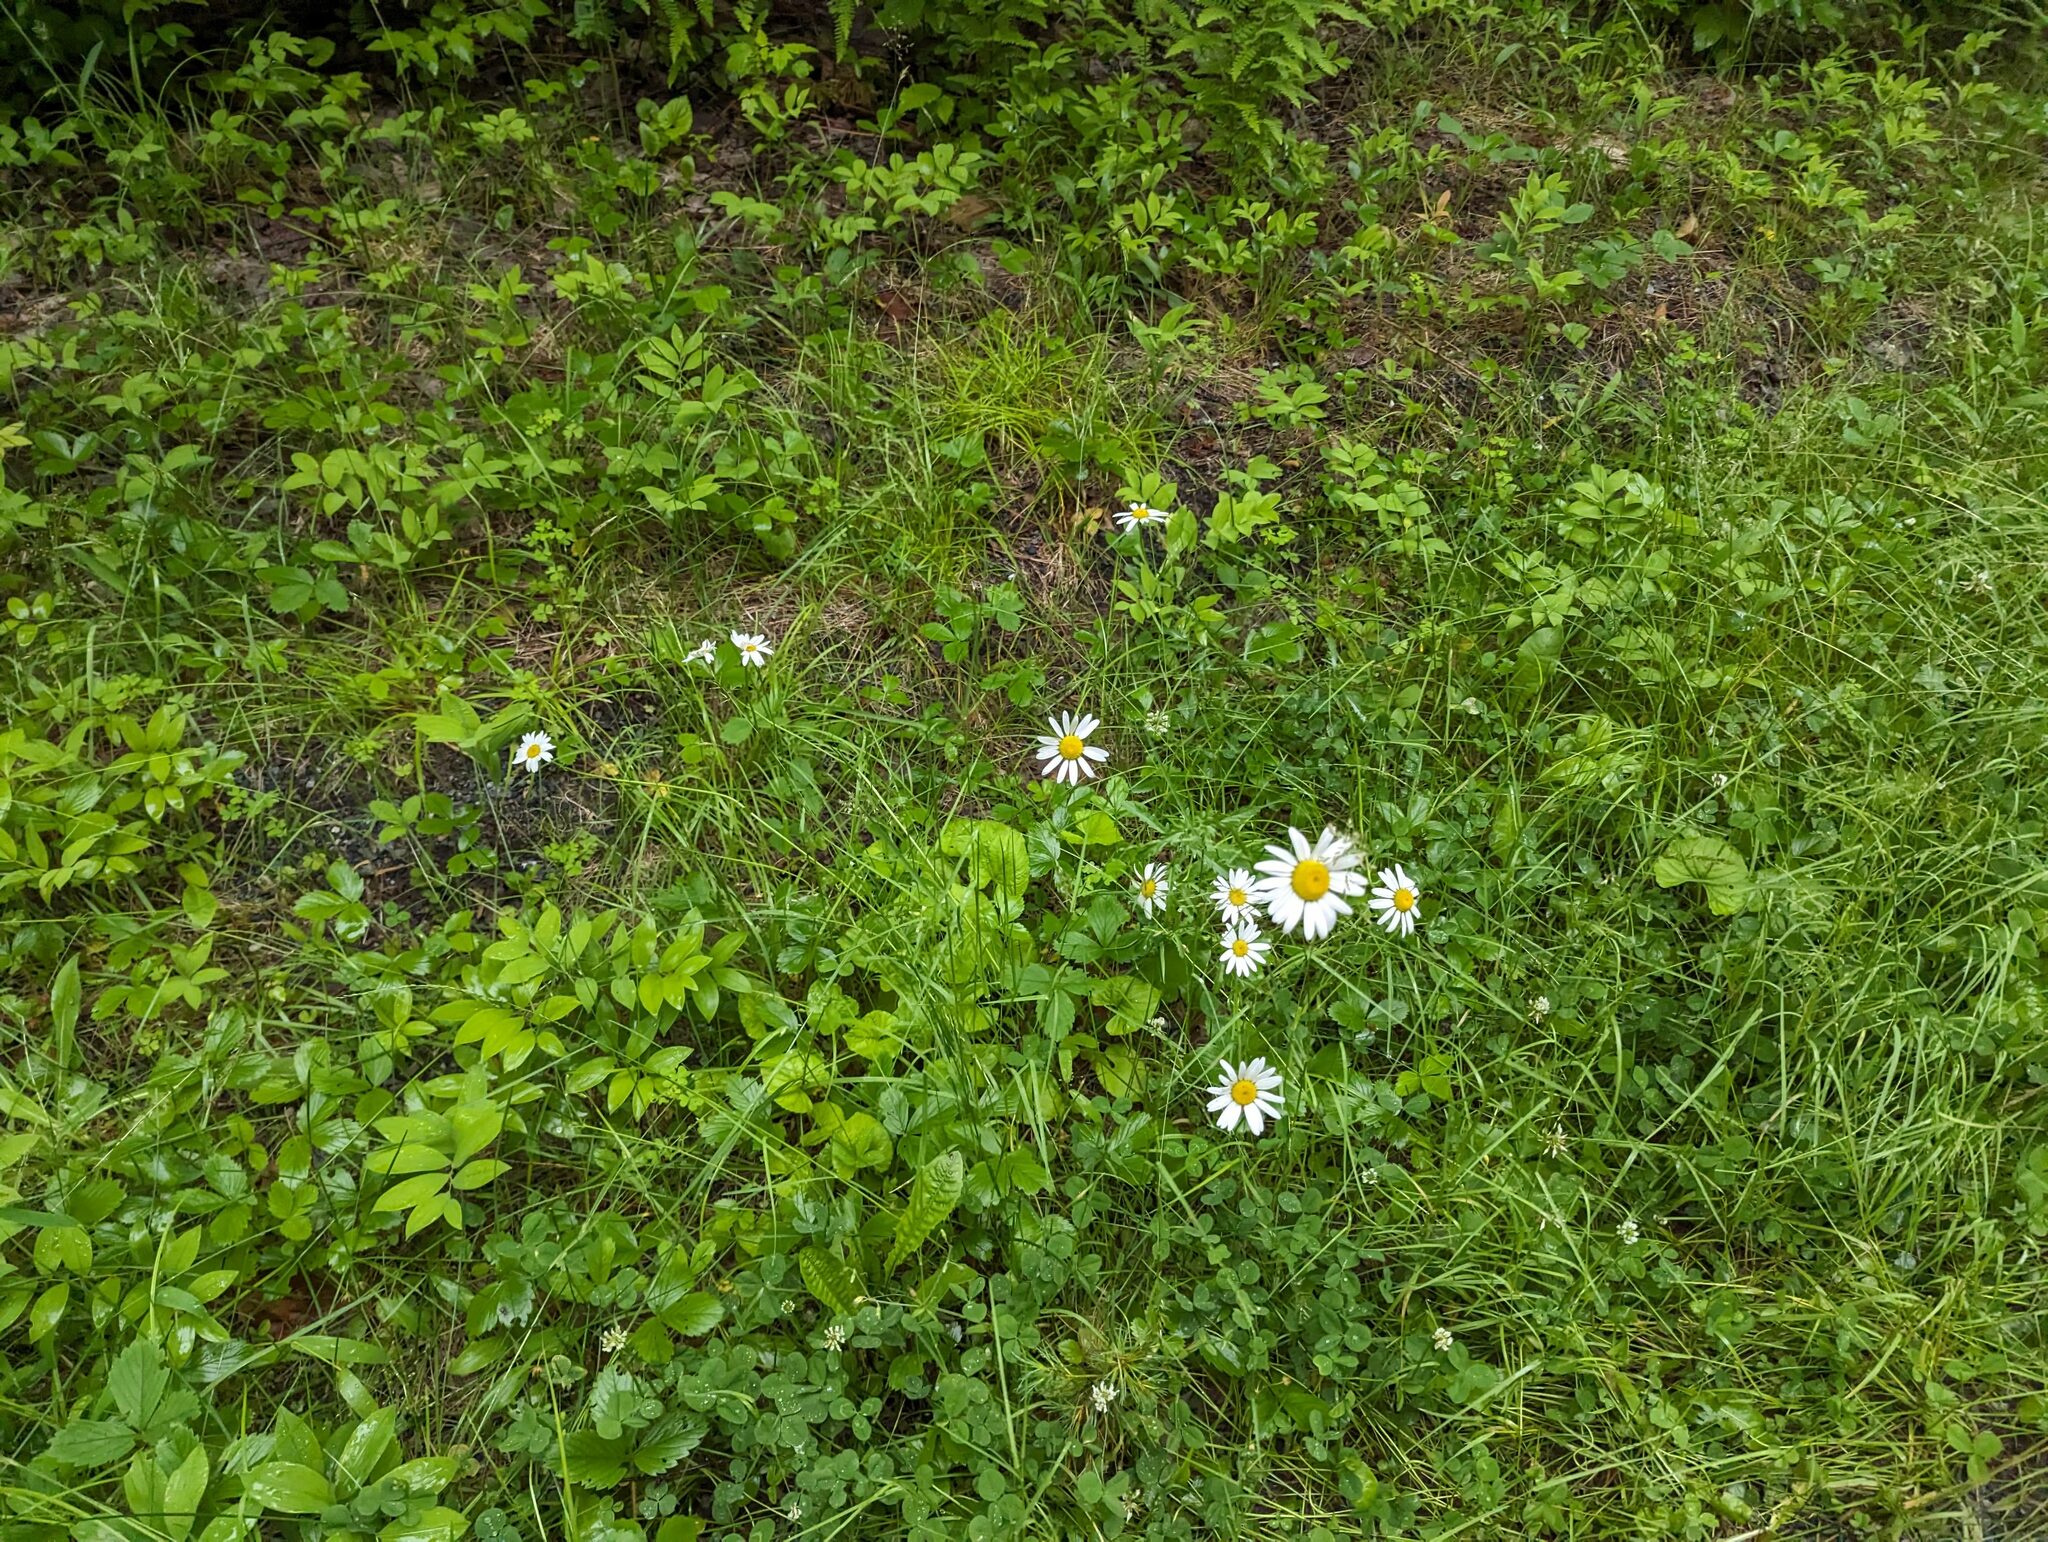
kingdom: Plantae
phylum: Tracheophyta
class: Magnoliopsida
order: Asterales
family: Asteraceae
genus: Leucanthemum
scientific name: Leucanthemum vulgare
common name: Oxeye daisy
